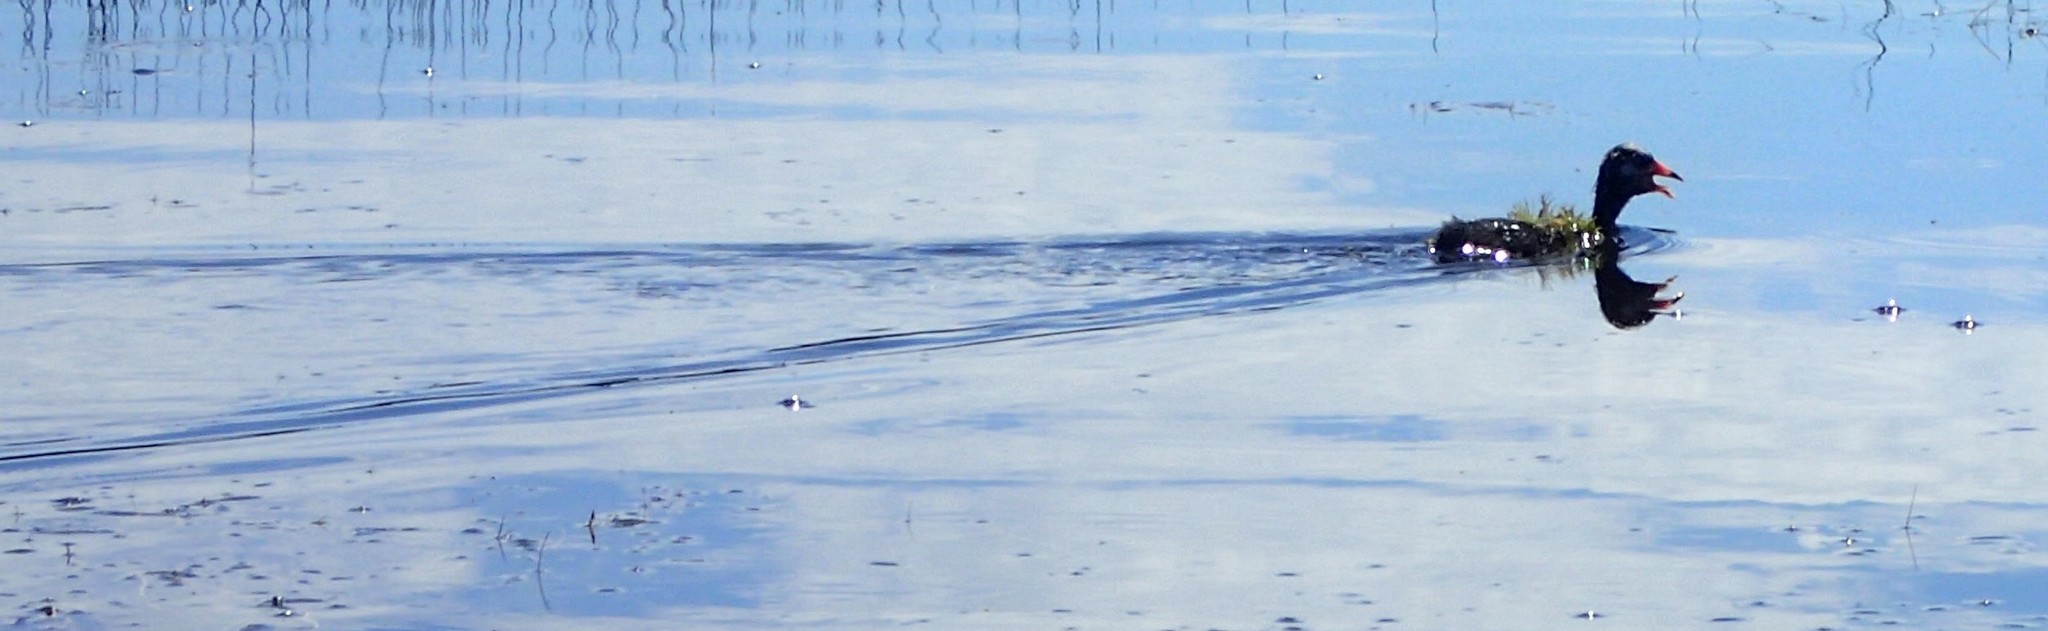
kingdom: Animalia
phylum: Chordata
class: Aves
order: Gruiformes
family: Rallidae
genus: Fulica
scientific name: Fulica americana
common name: American coot
